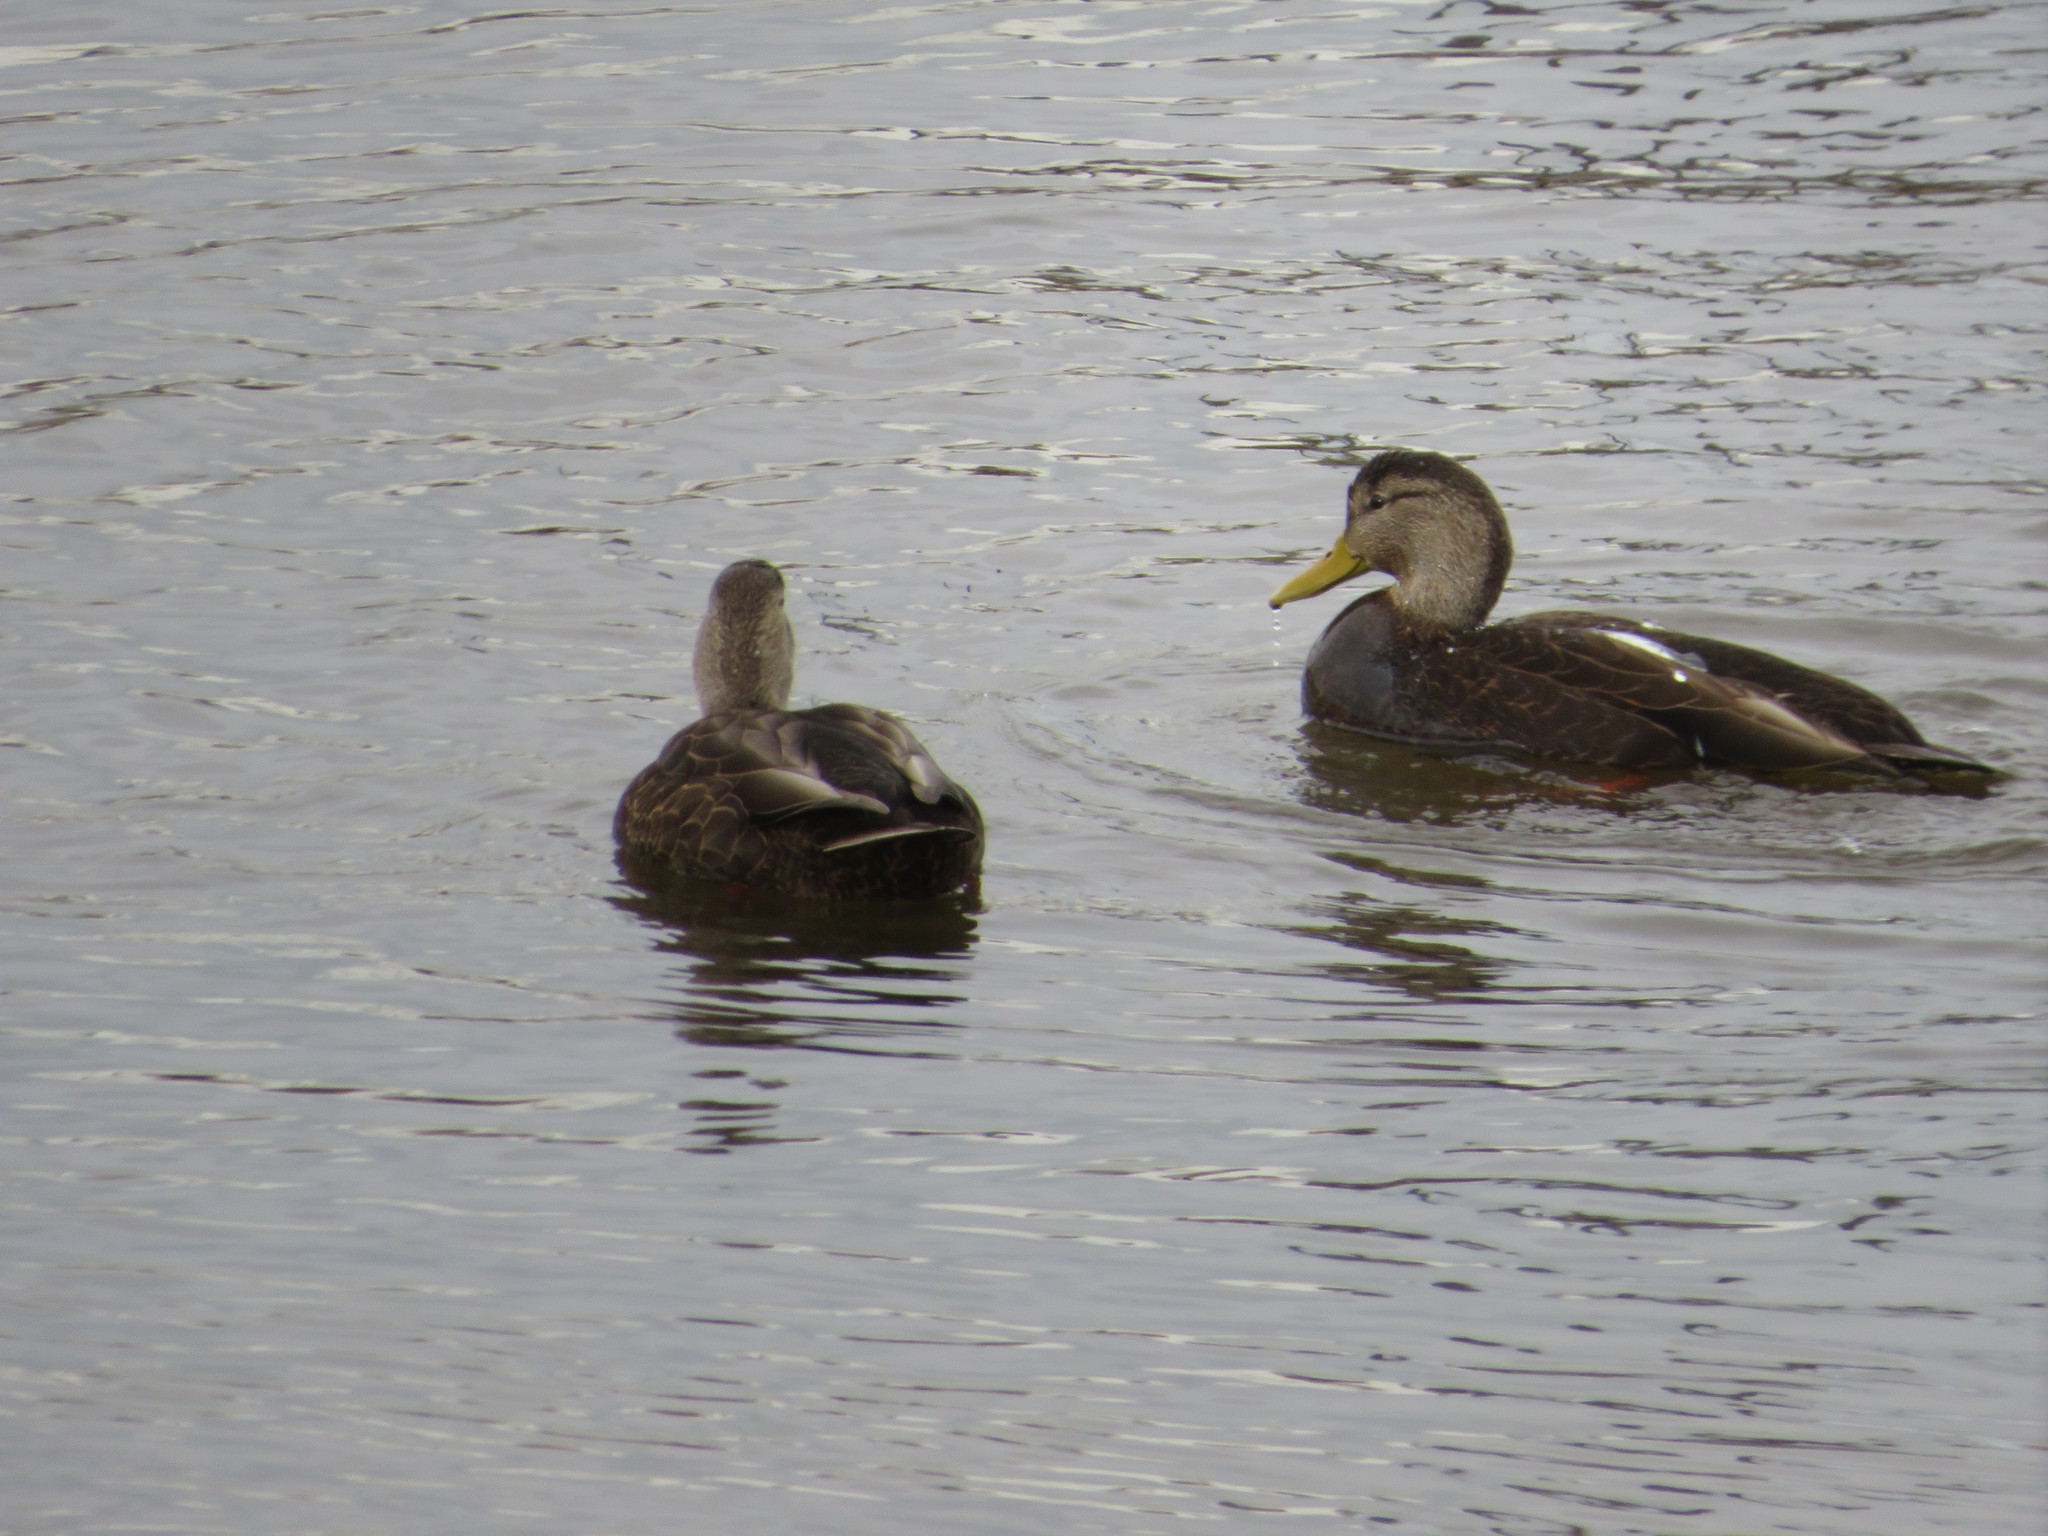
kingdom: Animalia
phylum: Chordata
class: Aves
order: Anseriformes
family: Anatidae
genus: Anas
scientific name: Anas rubripes
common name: American black duck
